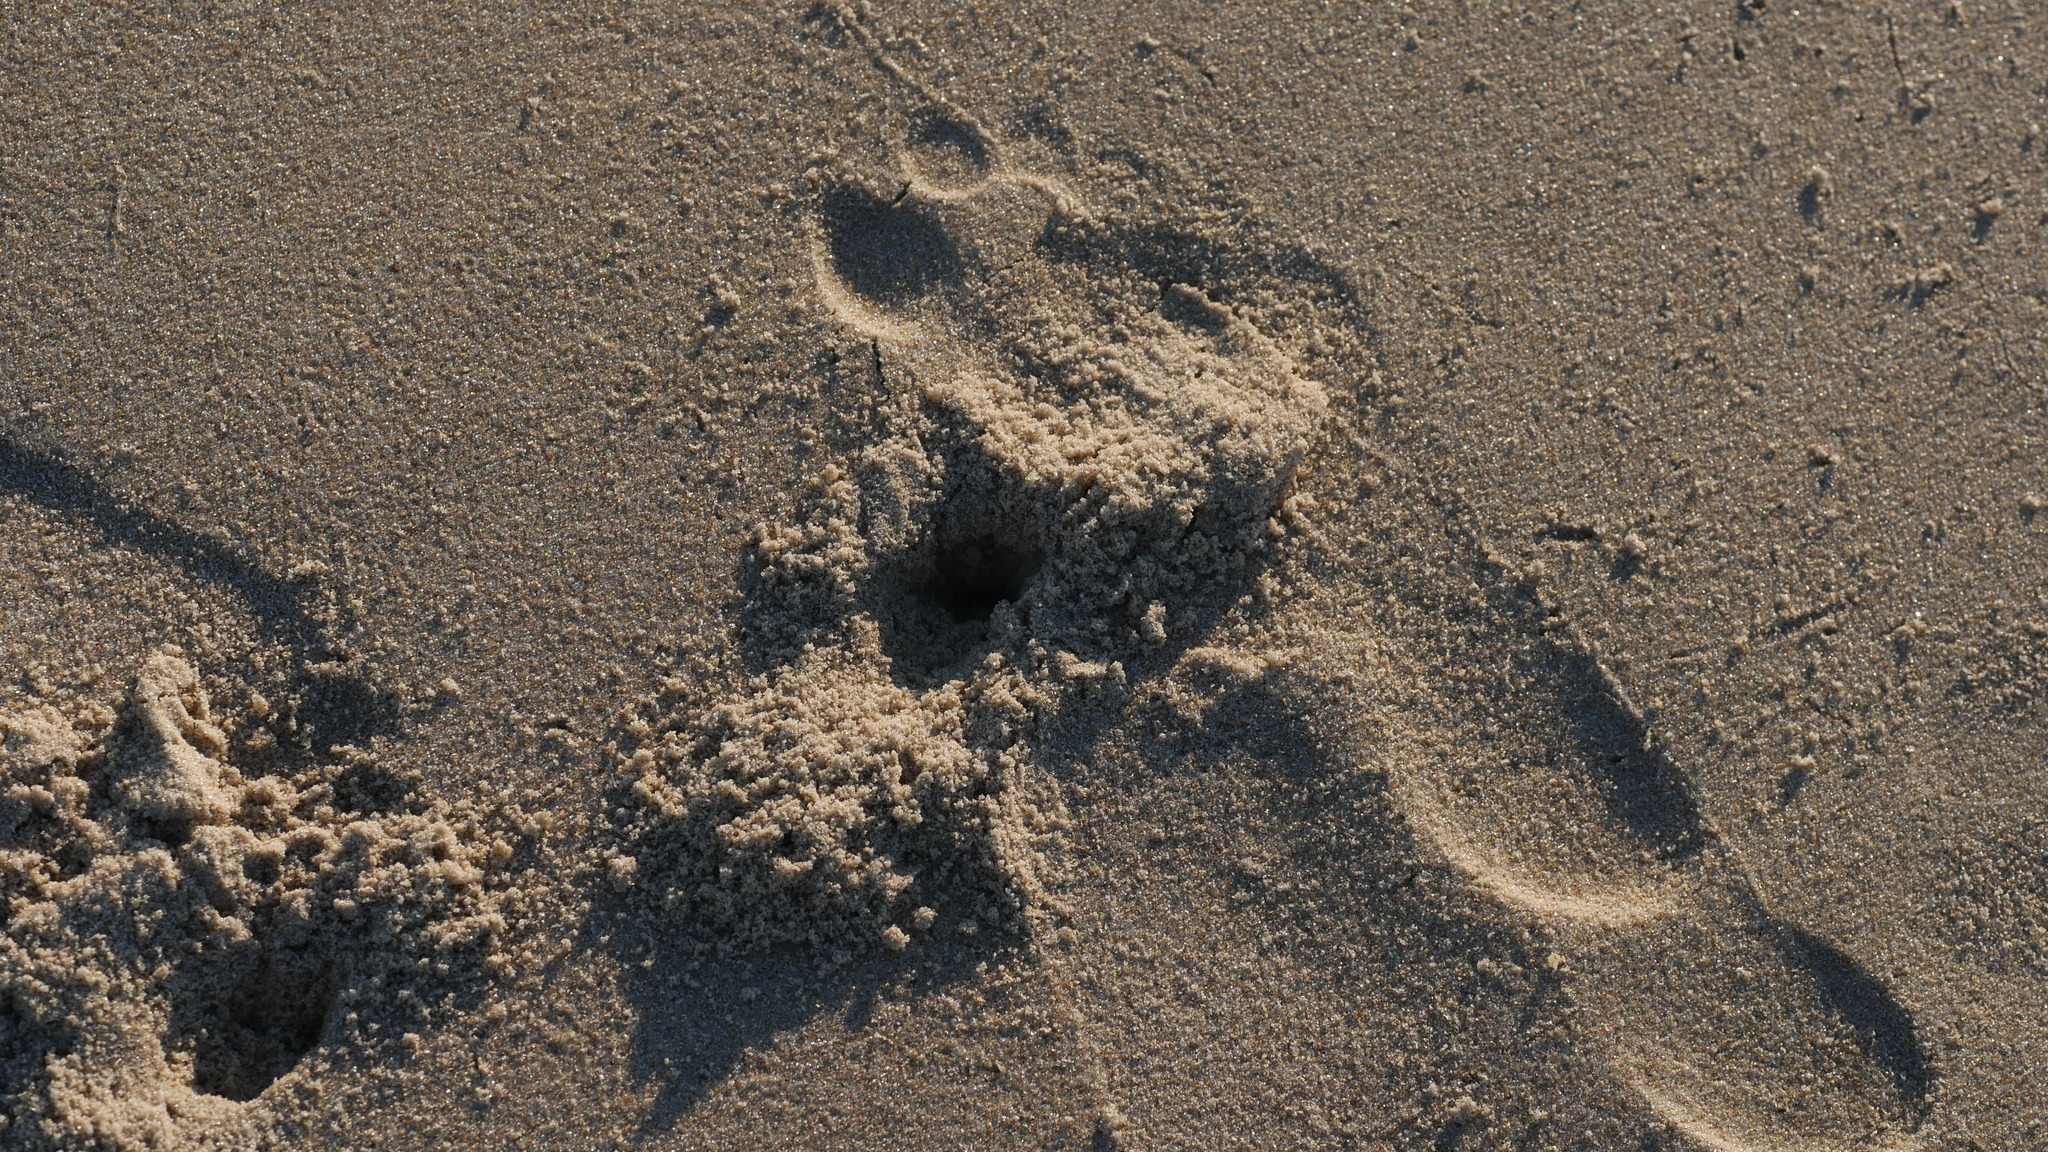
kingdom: Animalia
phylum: Arthropoda
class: Malacostraca
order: Decapoda
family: Ocypodidae
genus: Ocypode
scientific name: Ocypode quadrata
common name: Ghost crab
